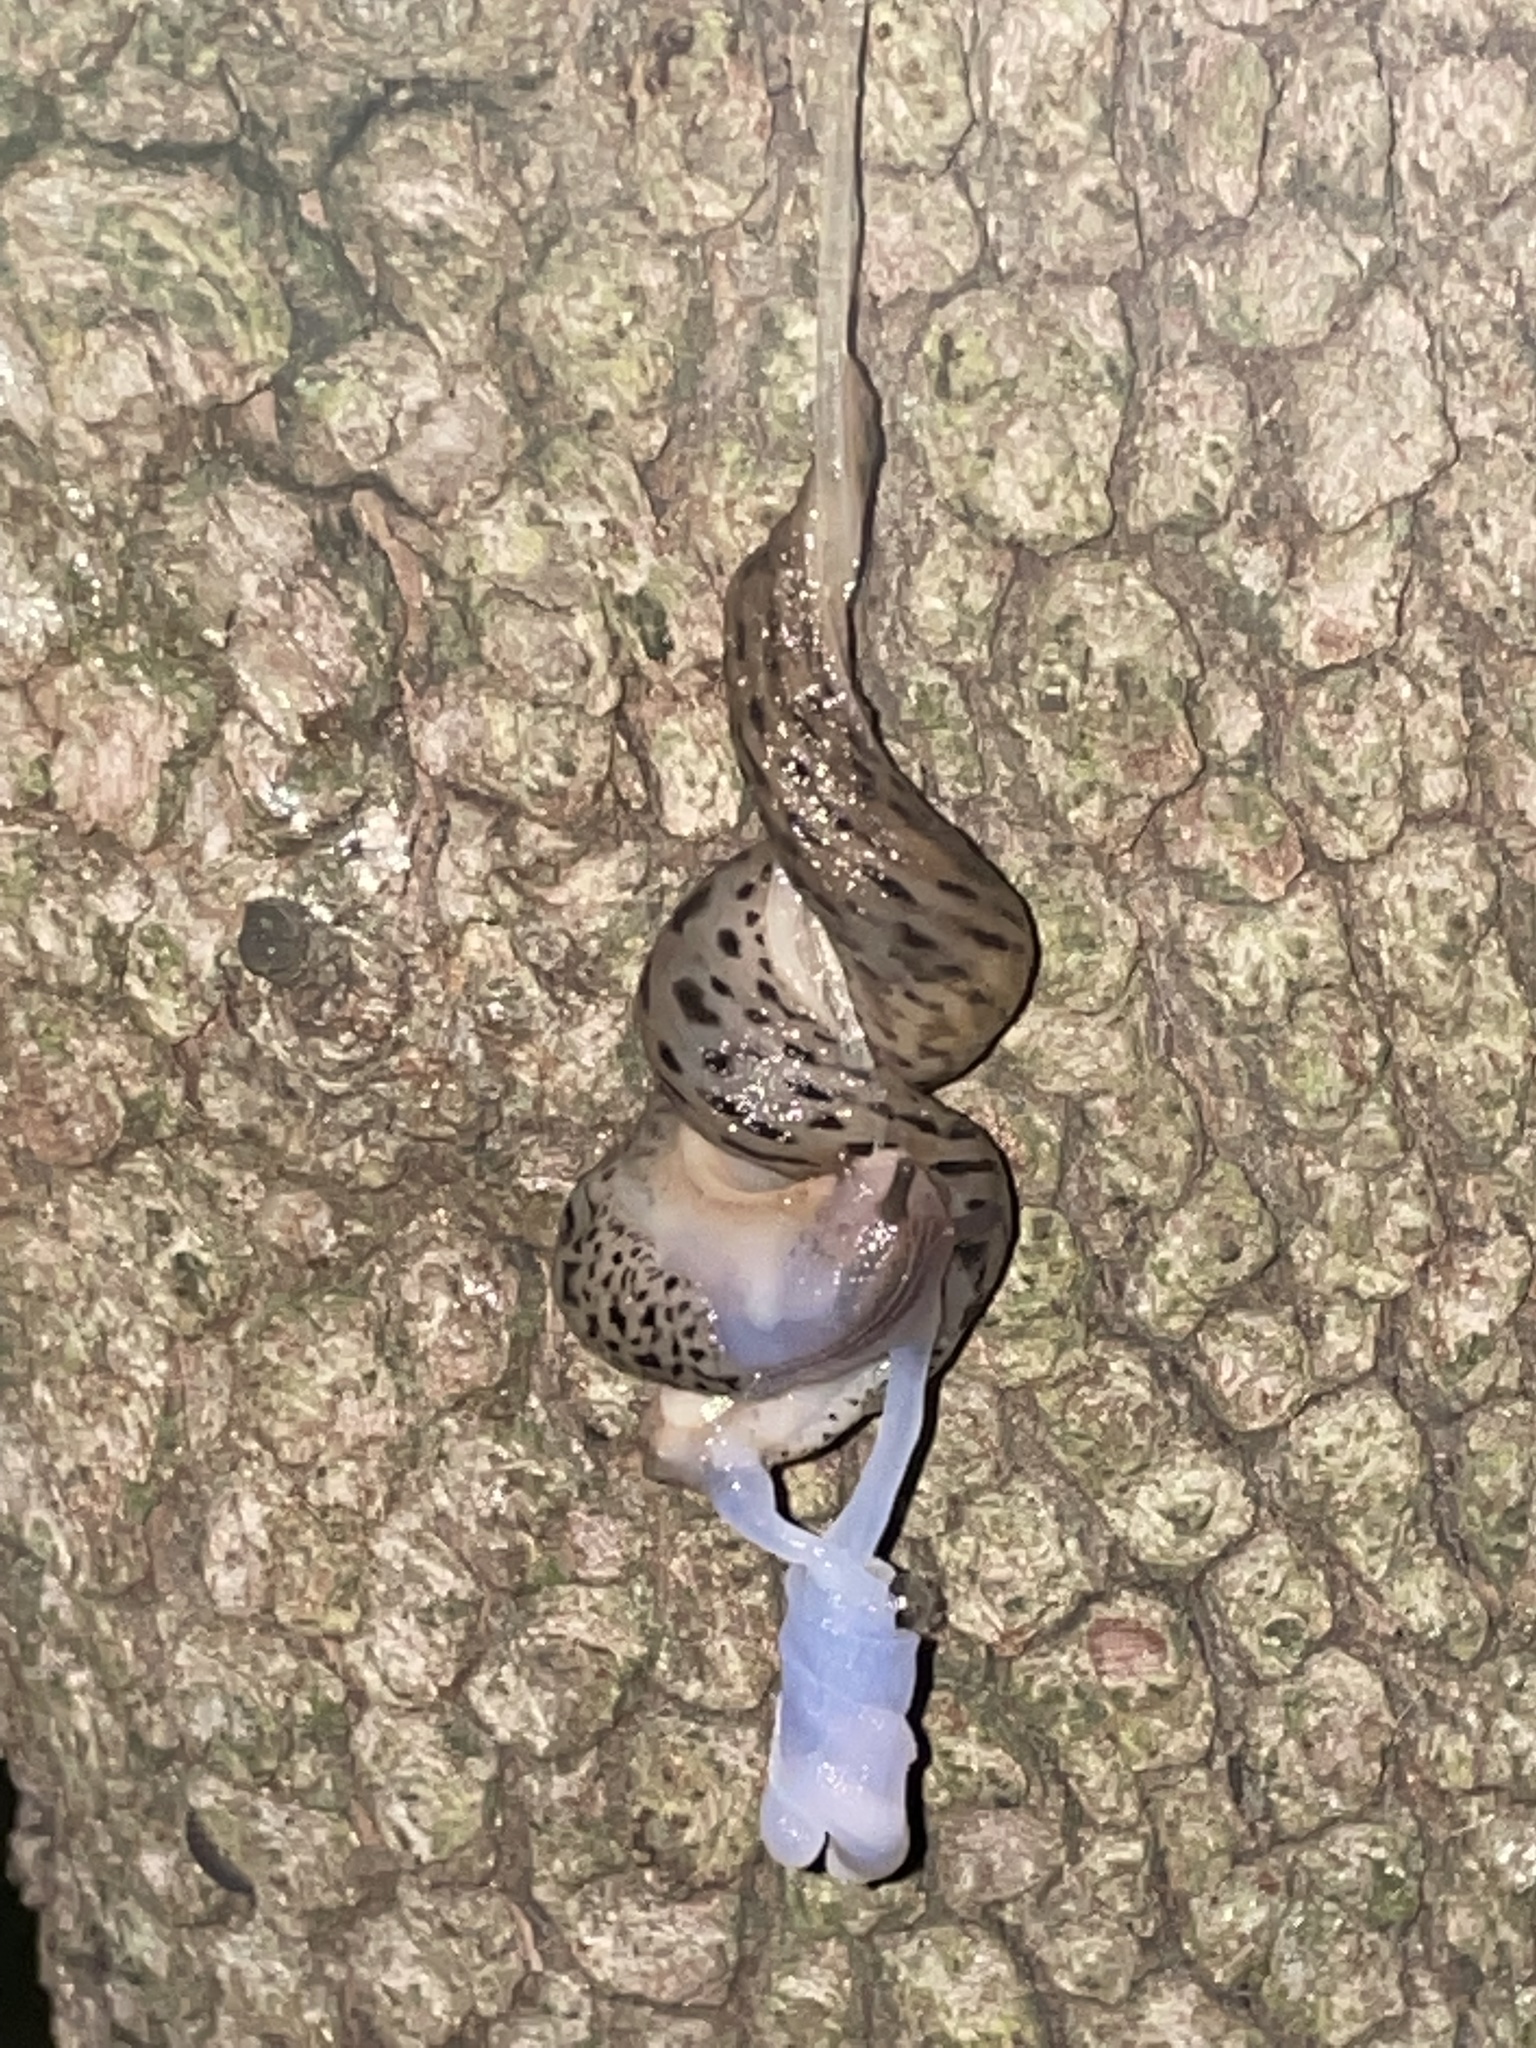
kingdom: Animalia
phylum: Mollusca
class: Gastropoda
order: Stylommatophora
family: Limacidae
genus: Limax
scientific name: Limax maximus
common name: Great grey slug
